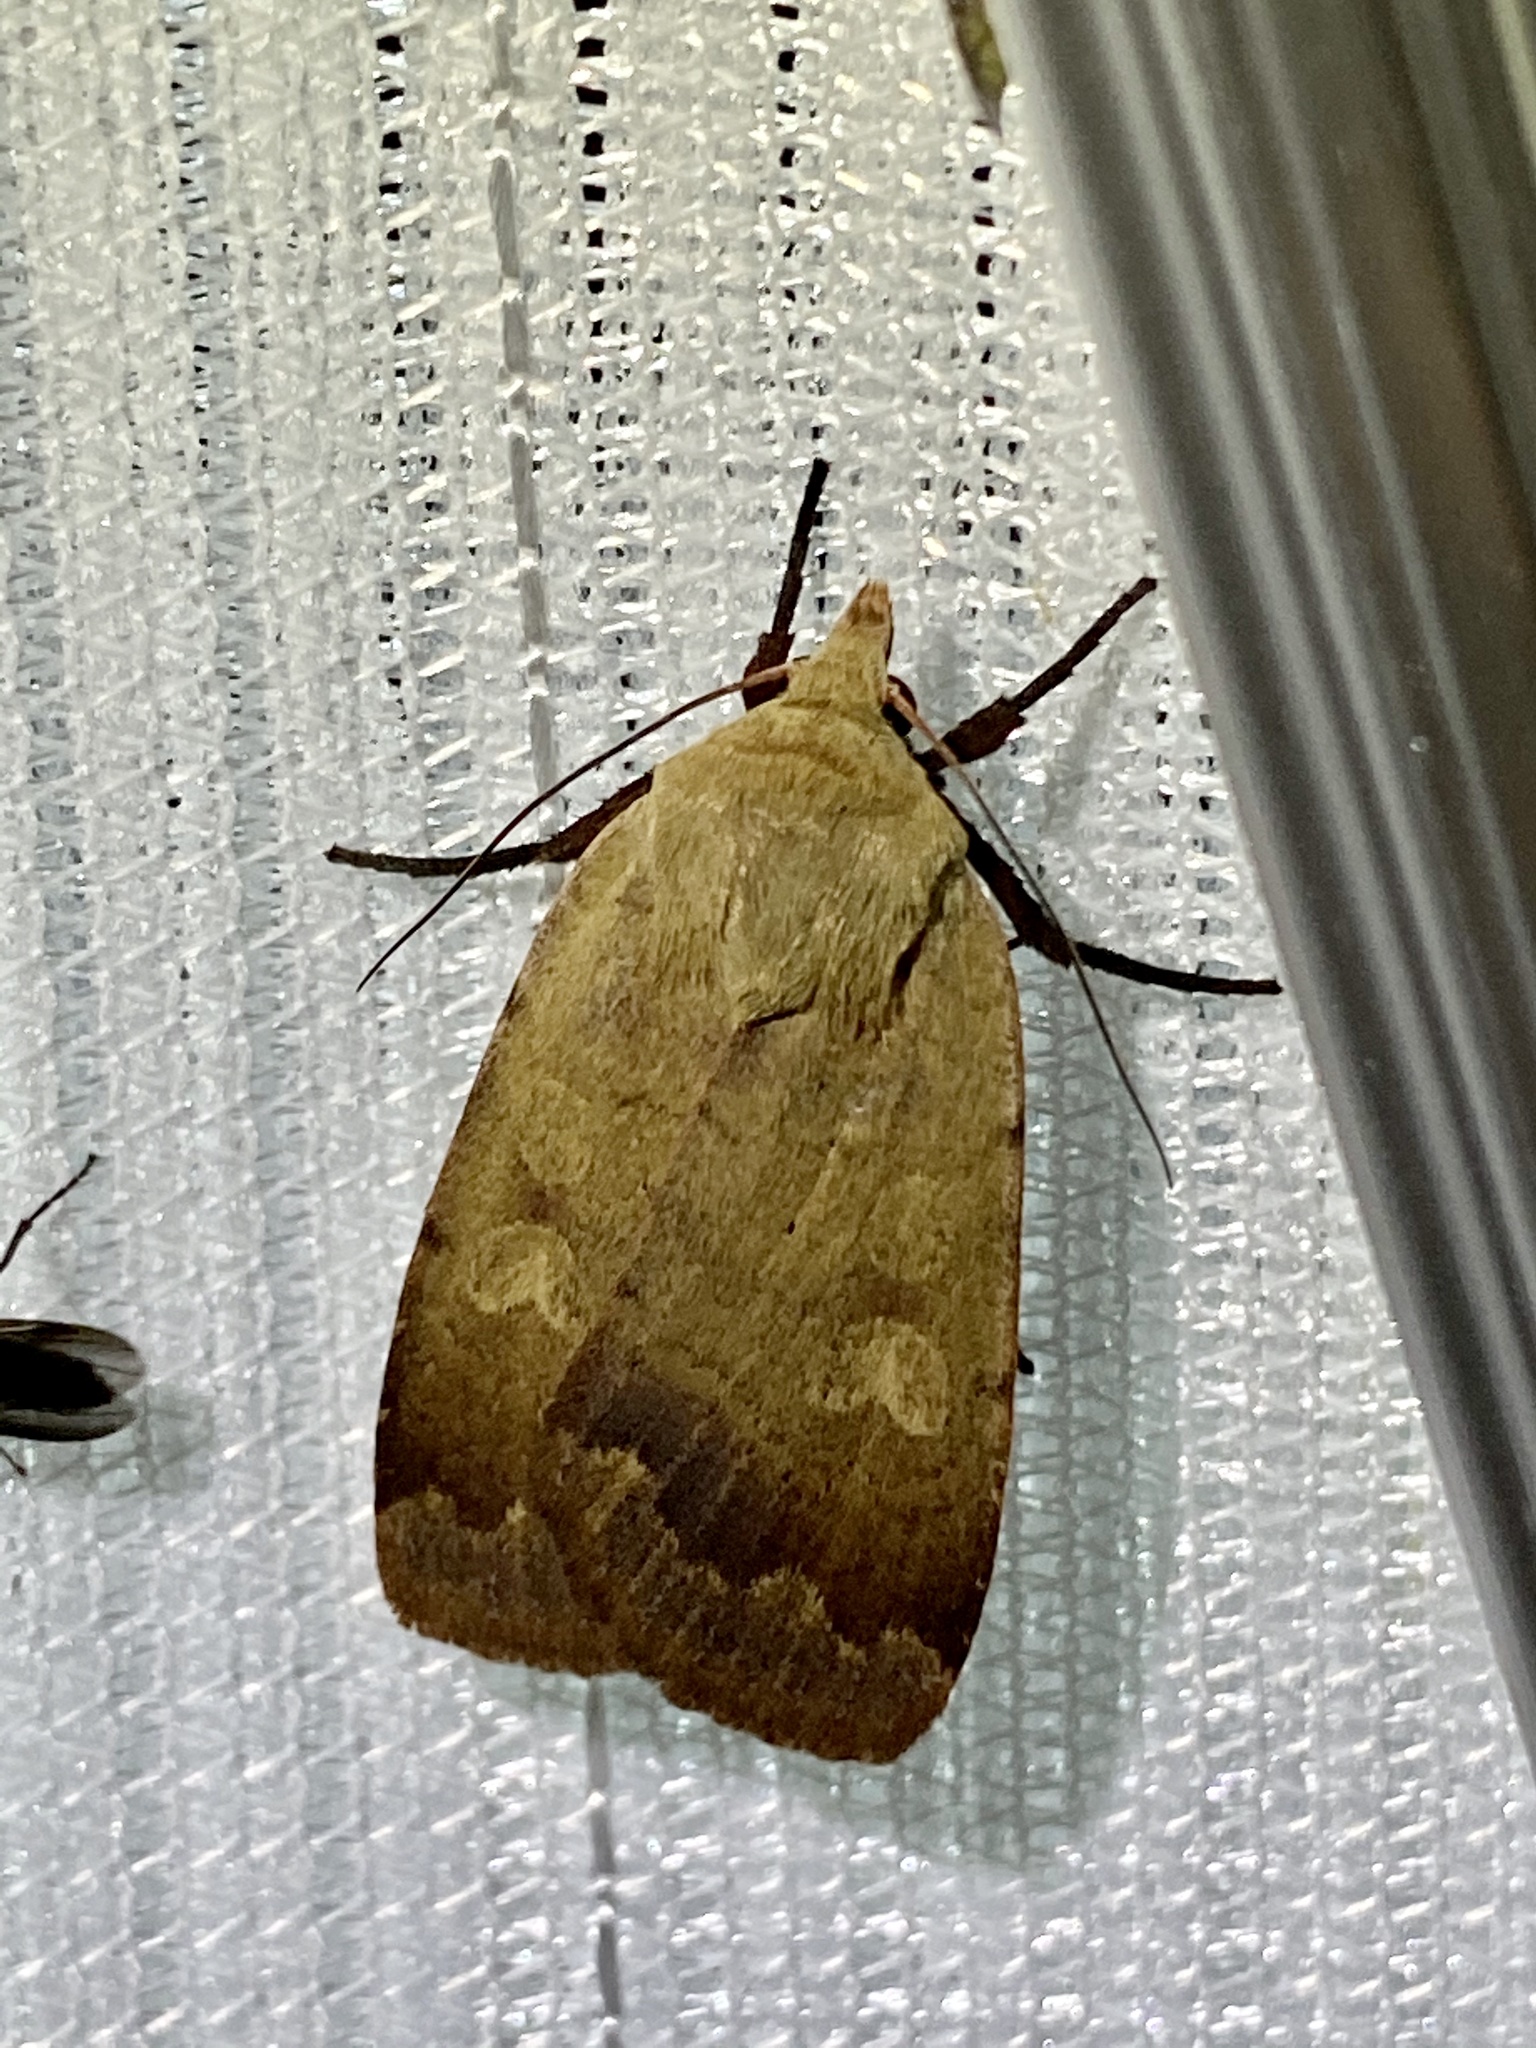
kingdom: Animalia
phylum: Arthropoda
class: Insecta
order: Lepidoptera
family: Noctuidae
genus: Sineugraphe
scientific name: Sineugraphe exusta
